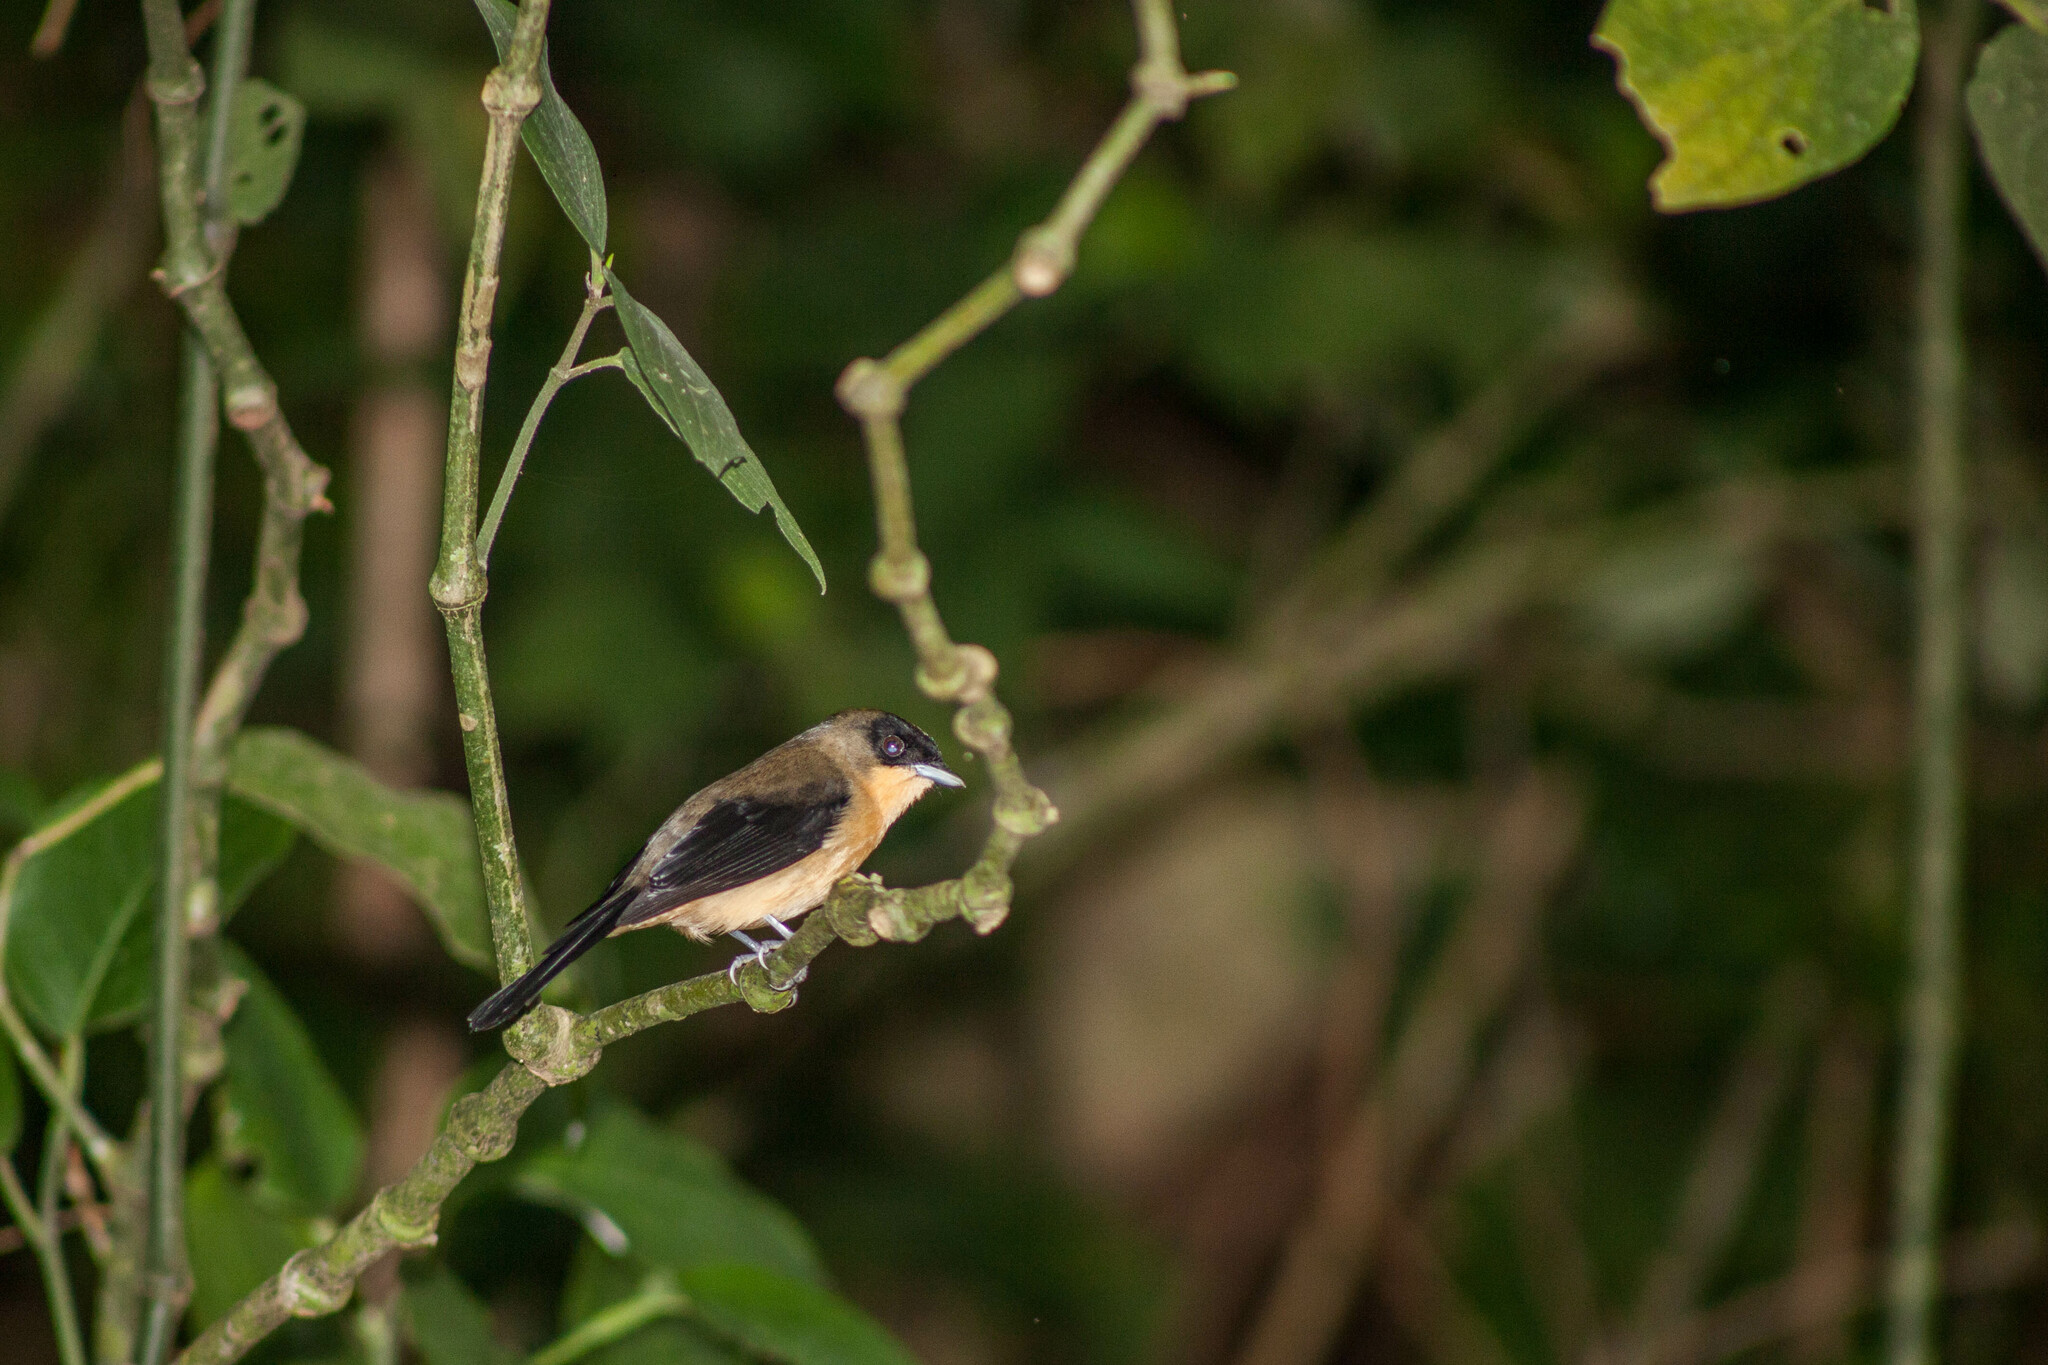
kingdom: Animalia
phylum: Chordata
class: Aves
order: Passeriformes
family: Thraupidae
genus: Trichothraupis
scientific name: Trichothraupis melanops
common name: Black-goggled tanager
